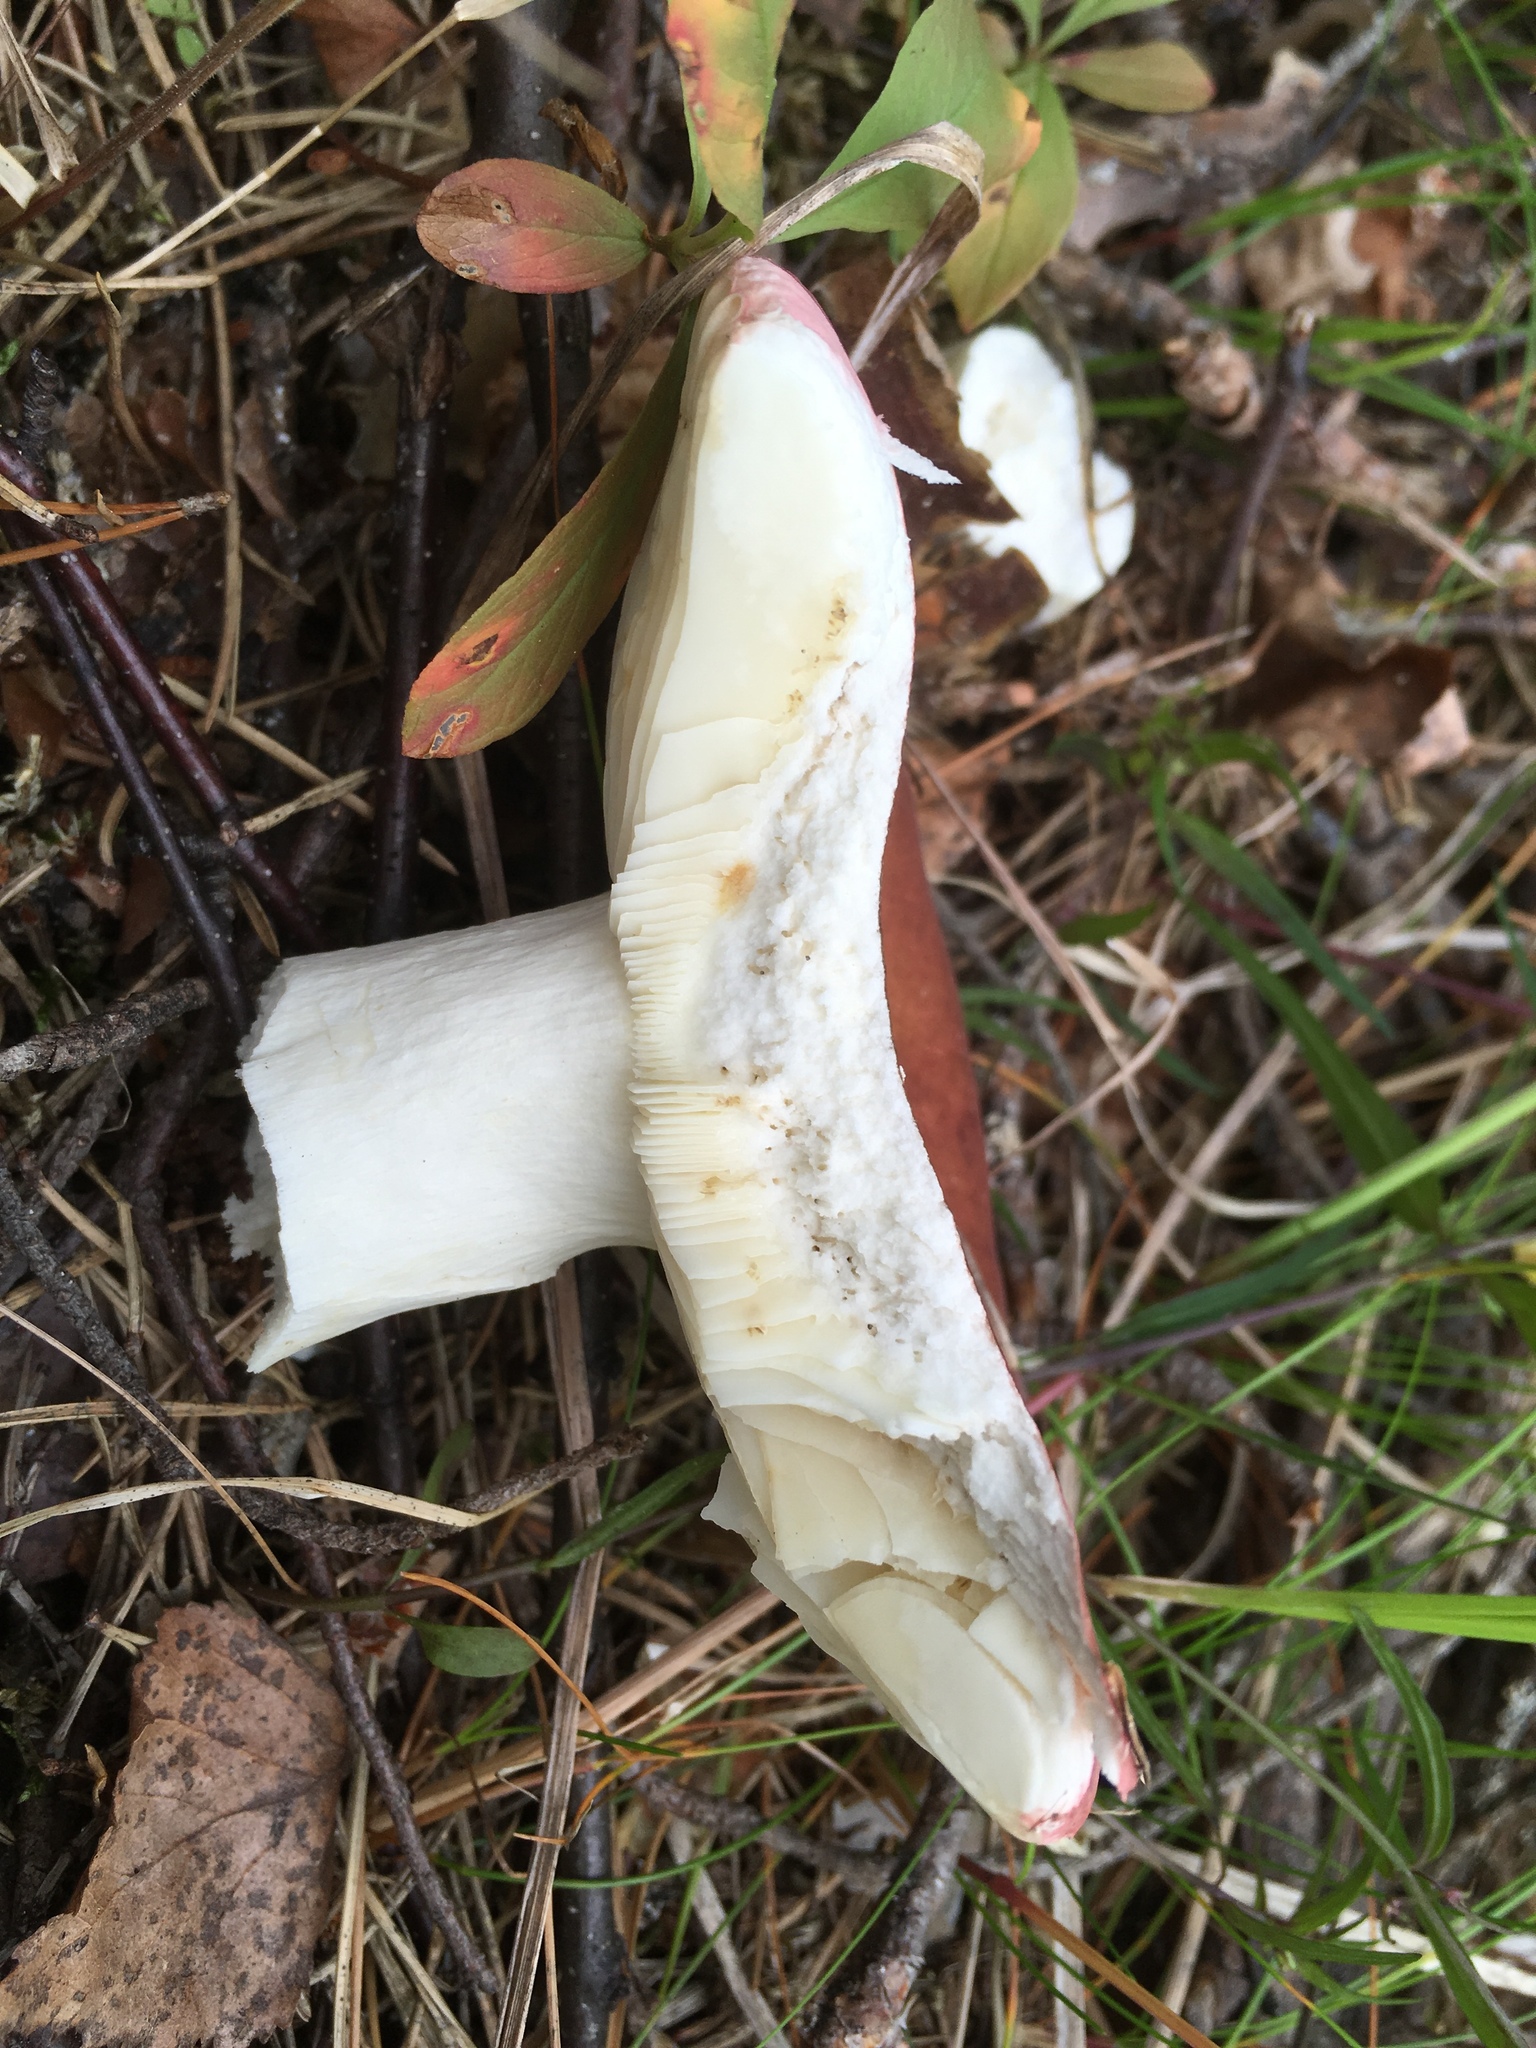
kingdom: Fungi
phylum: Basidiomycota
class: Agaricomycetes
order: Russulales
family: Russulaceae
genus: Russula
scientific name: Russula
